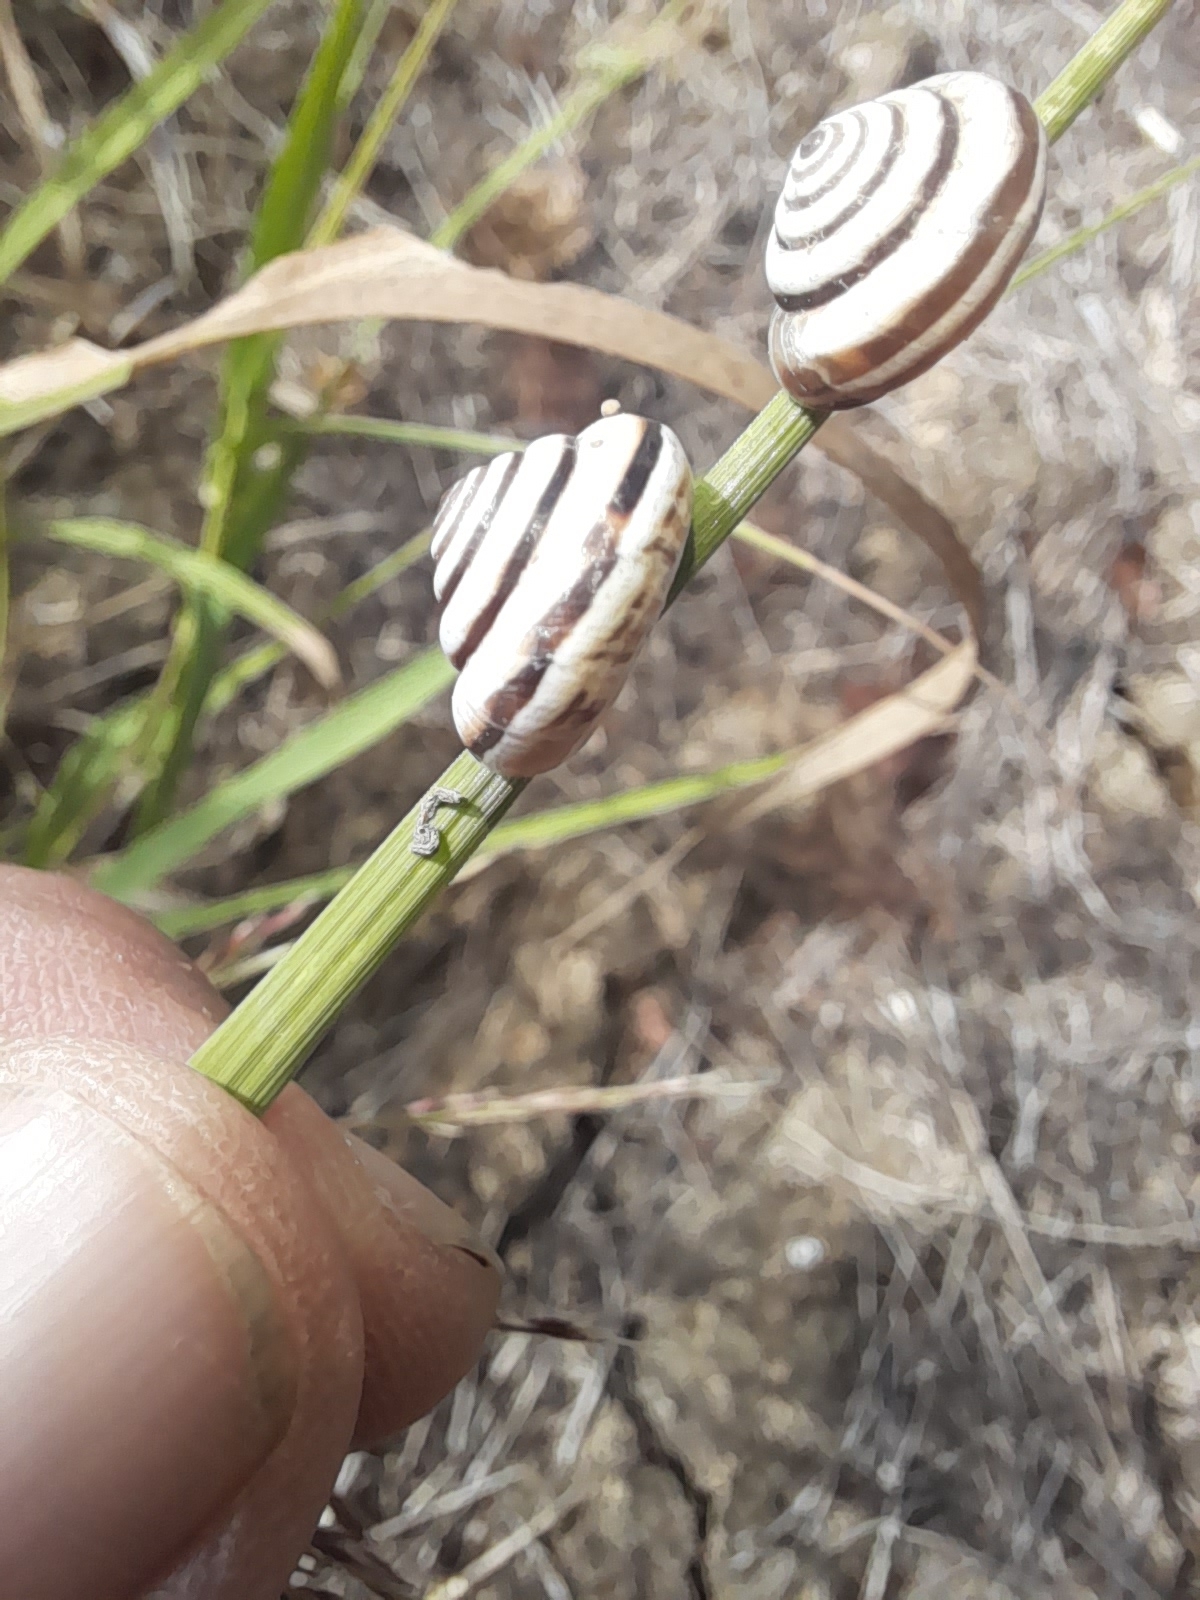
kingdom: Animalia
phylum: Mollusca
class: Gastropoda
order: Stylommatophora
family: Geomitridae
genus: Trochoidea
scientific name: Trochoidea pyramidata
